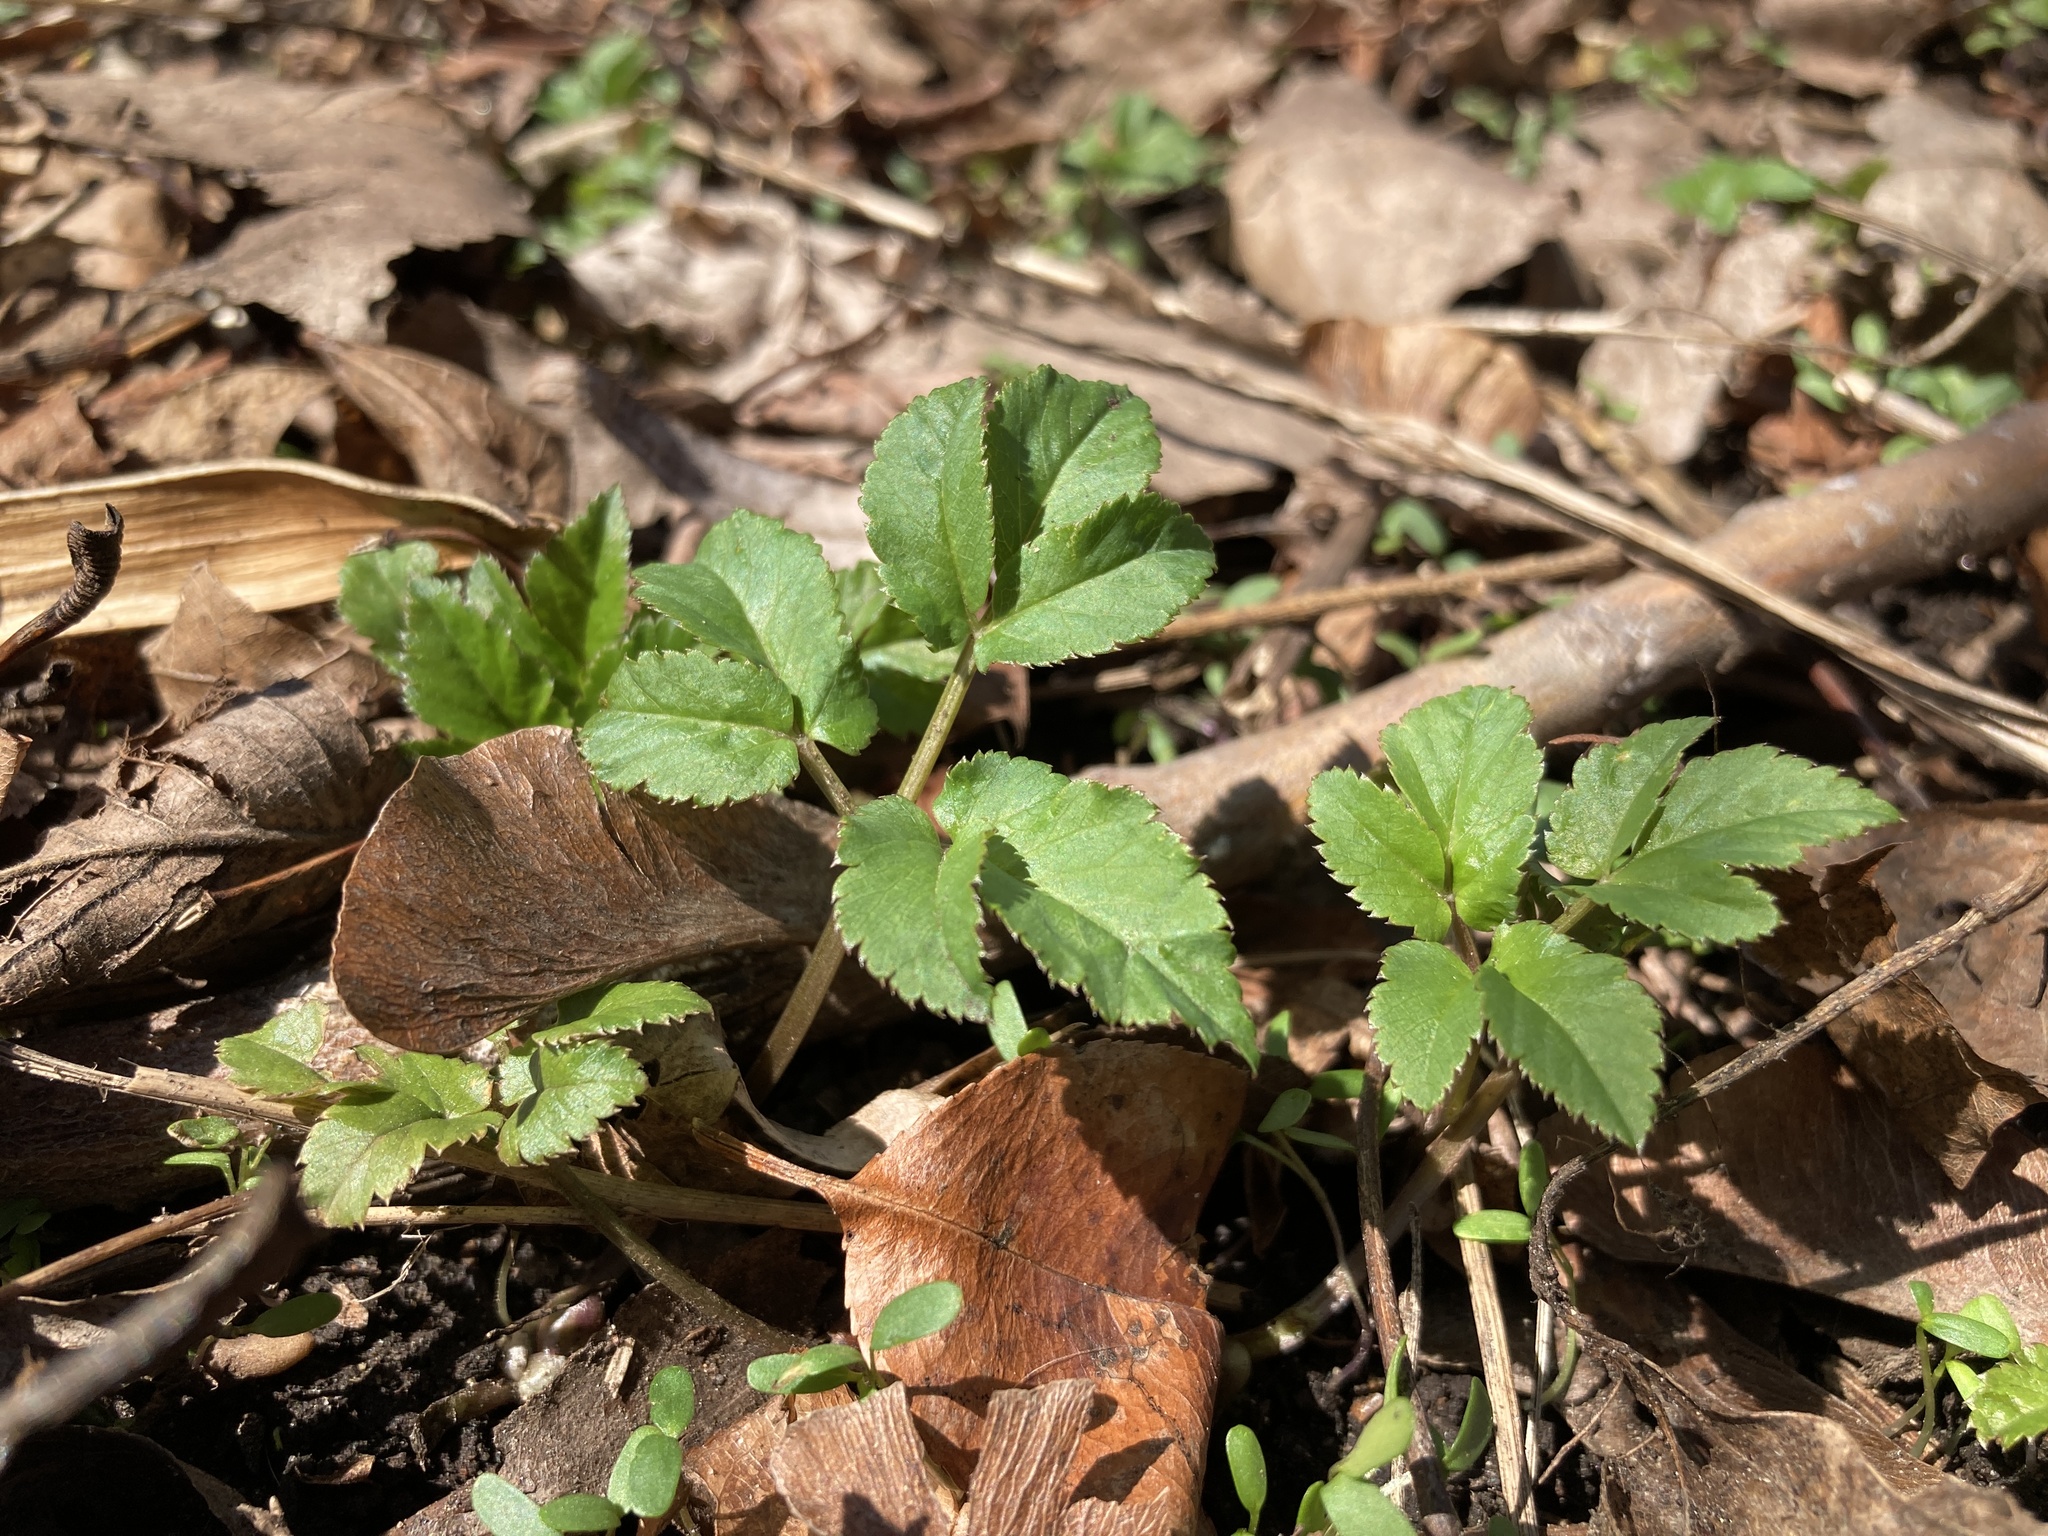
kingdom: Plantae
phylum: Tracheophyta
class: Magnoliopsida
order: Apiales
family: Apiaceae
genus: Aegopodium
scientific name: Aegopodium podagraria
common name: Ground-elder
